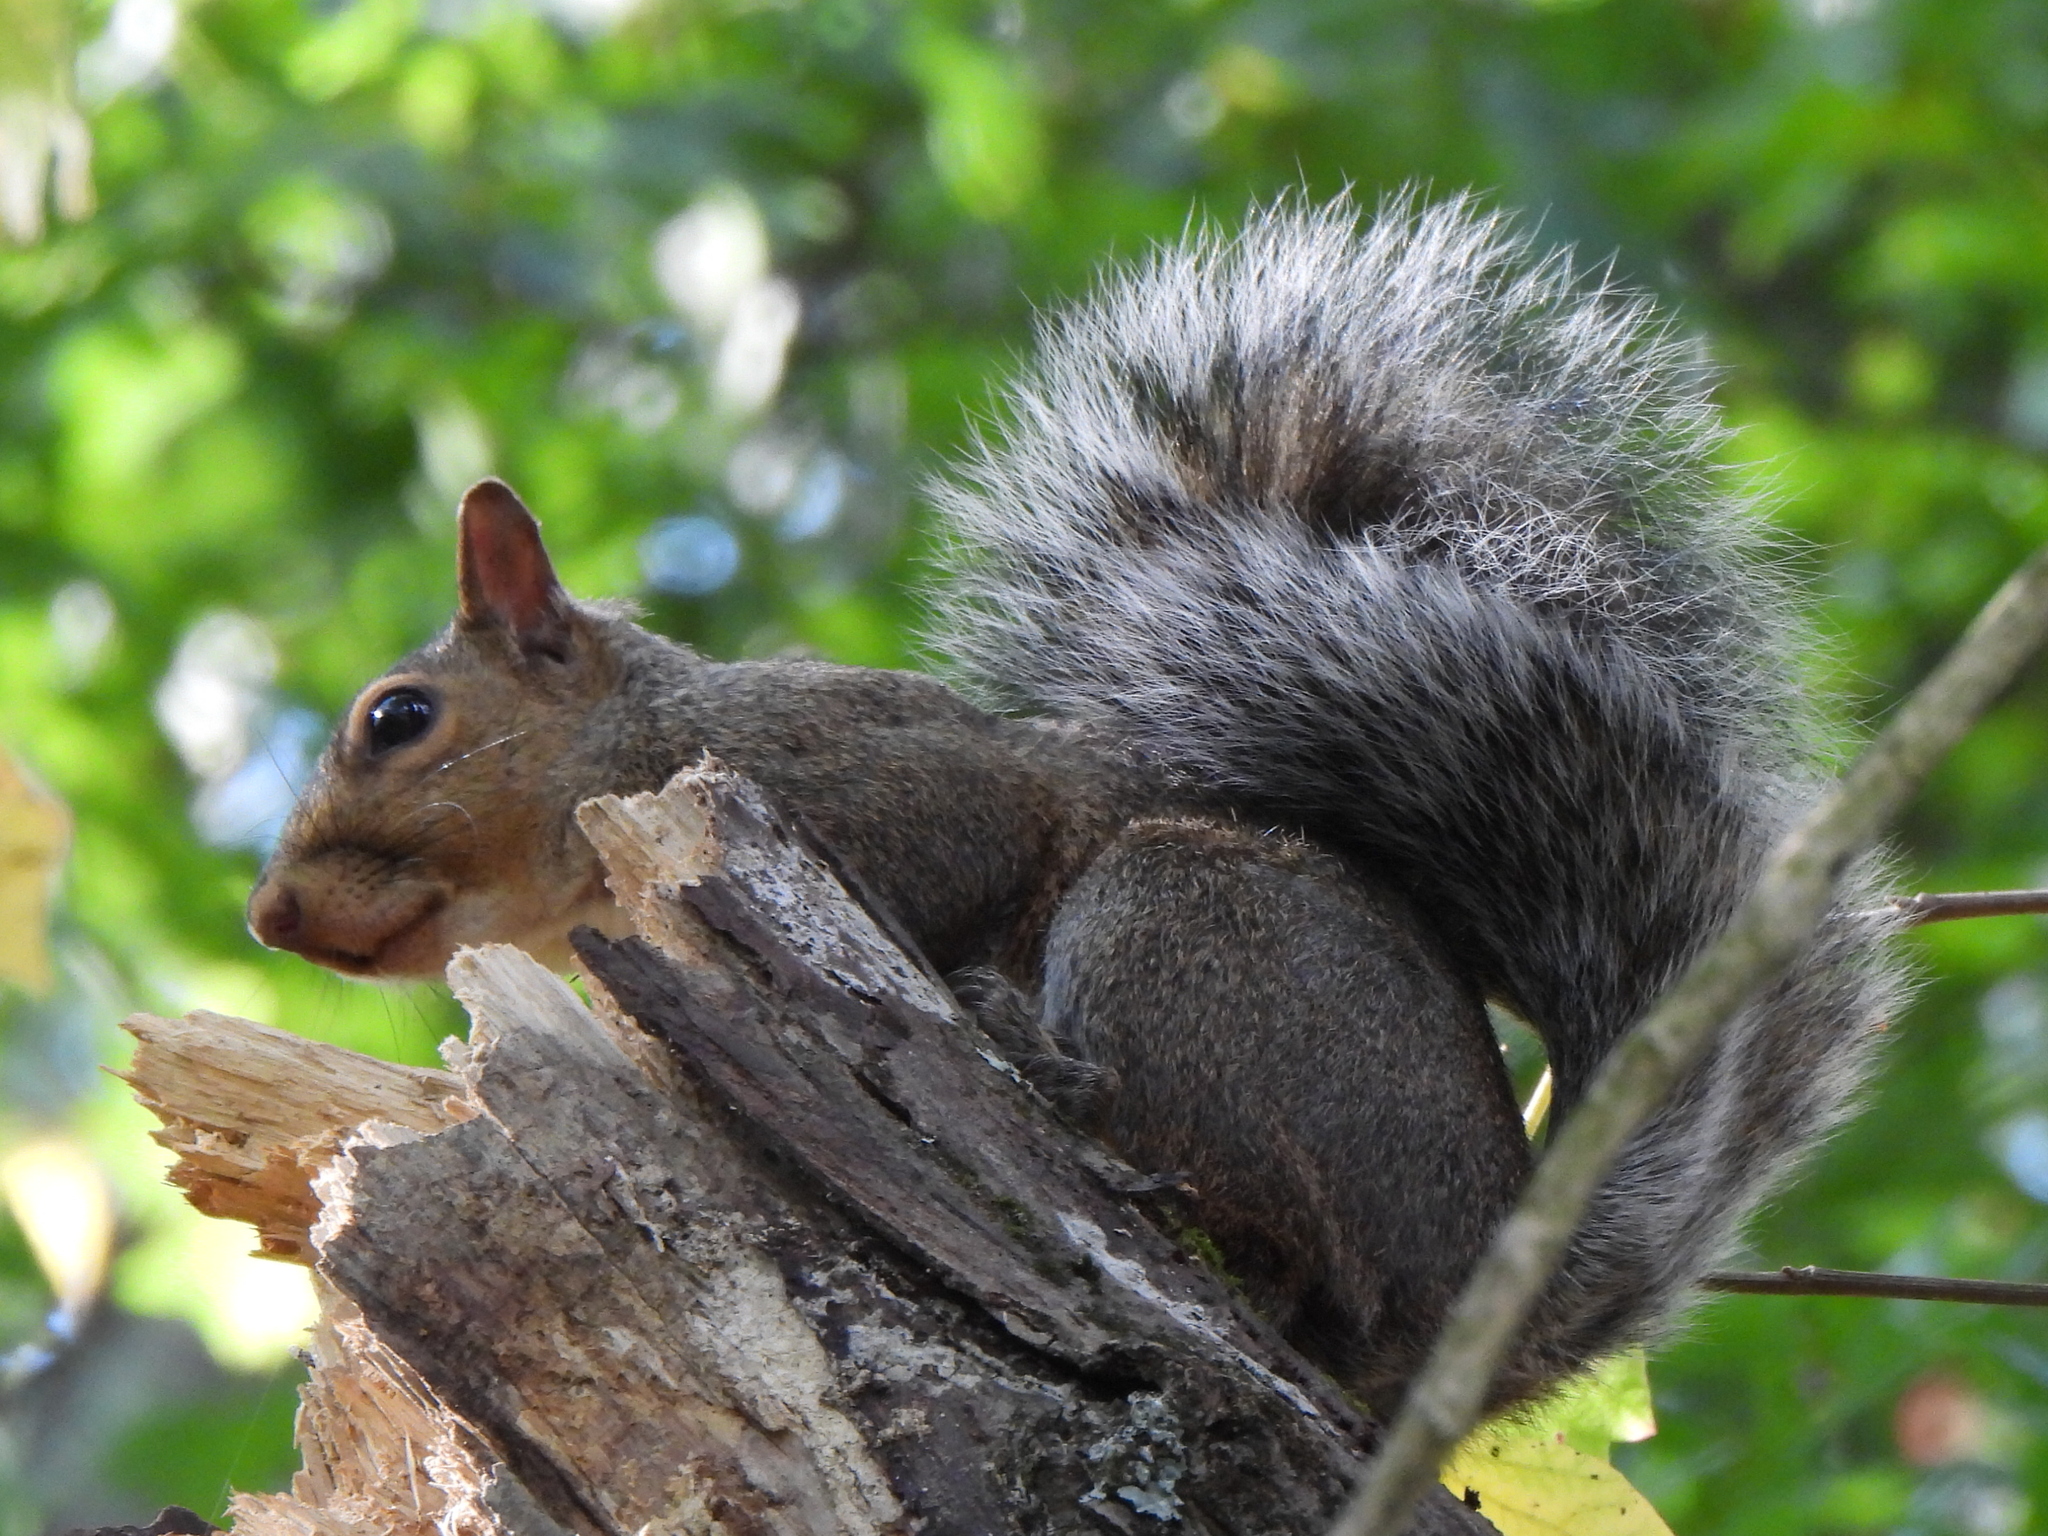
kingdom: Animalia
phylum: Chordata
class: Mammalia
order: Rodentia
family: Sciuridae
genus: Sciurus
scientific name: Sciurus carolinensis
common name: Eastern gray squirrel
